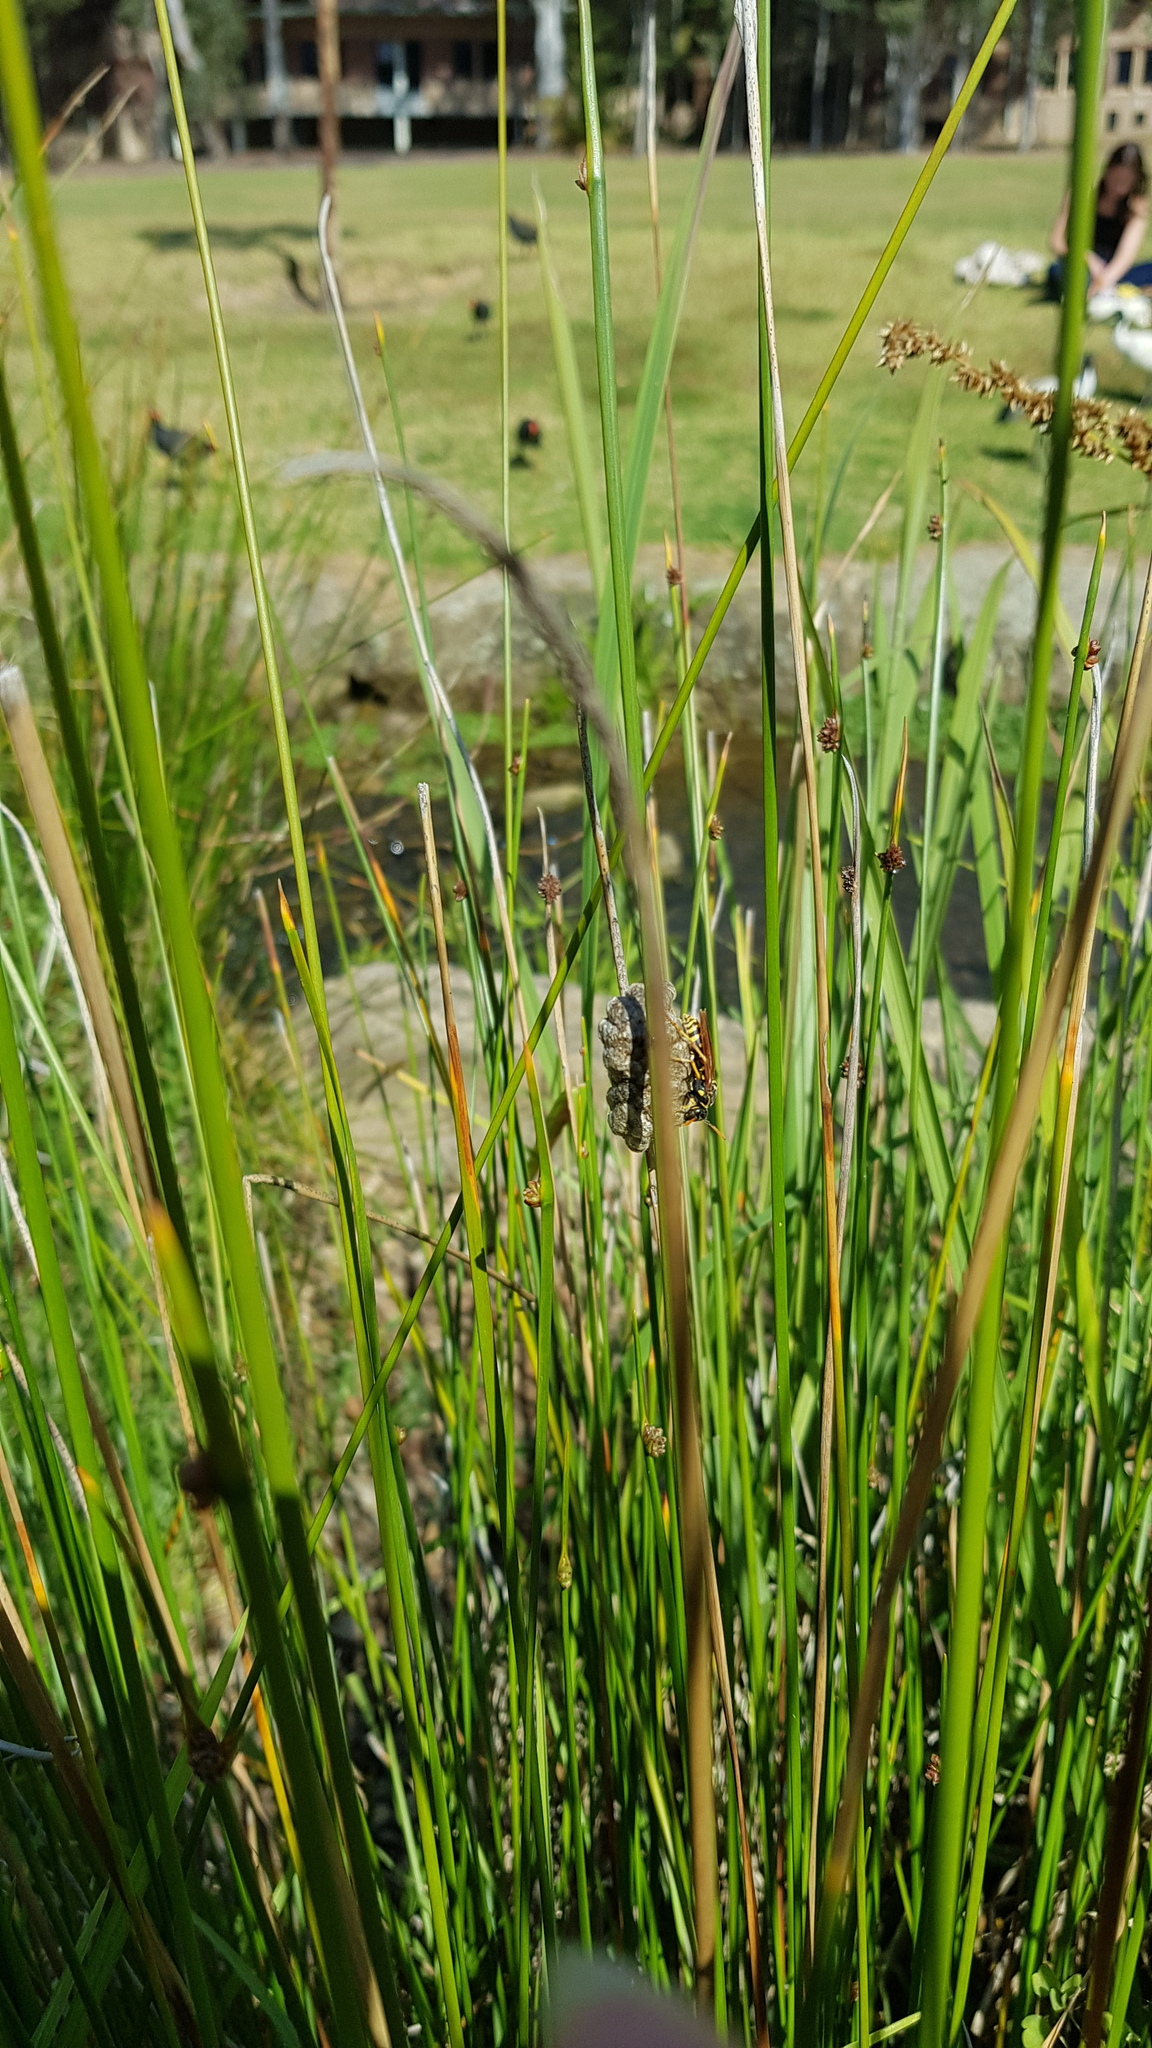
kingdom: Animalia
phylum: Arthropoda
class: Insecta
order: Hymenoptera
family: Eumenidae
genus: Polistes
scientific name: Polistes chinensis
